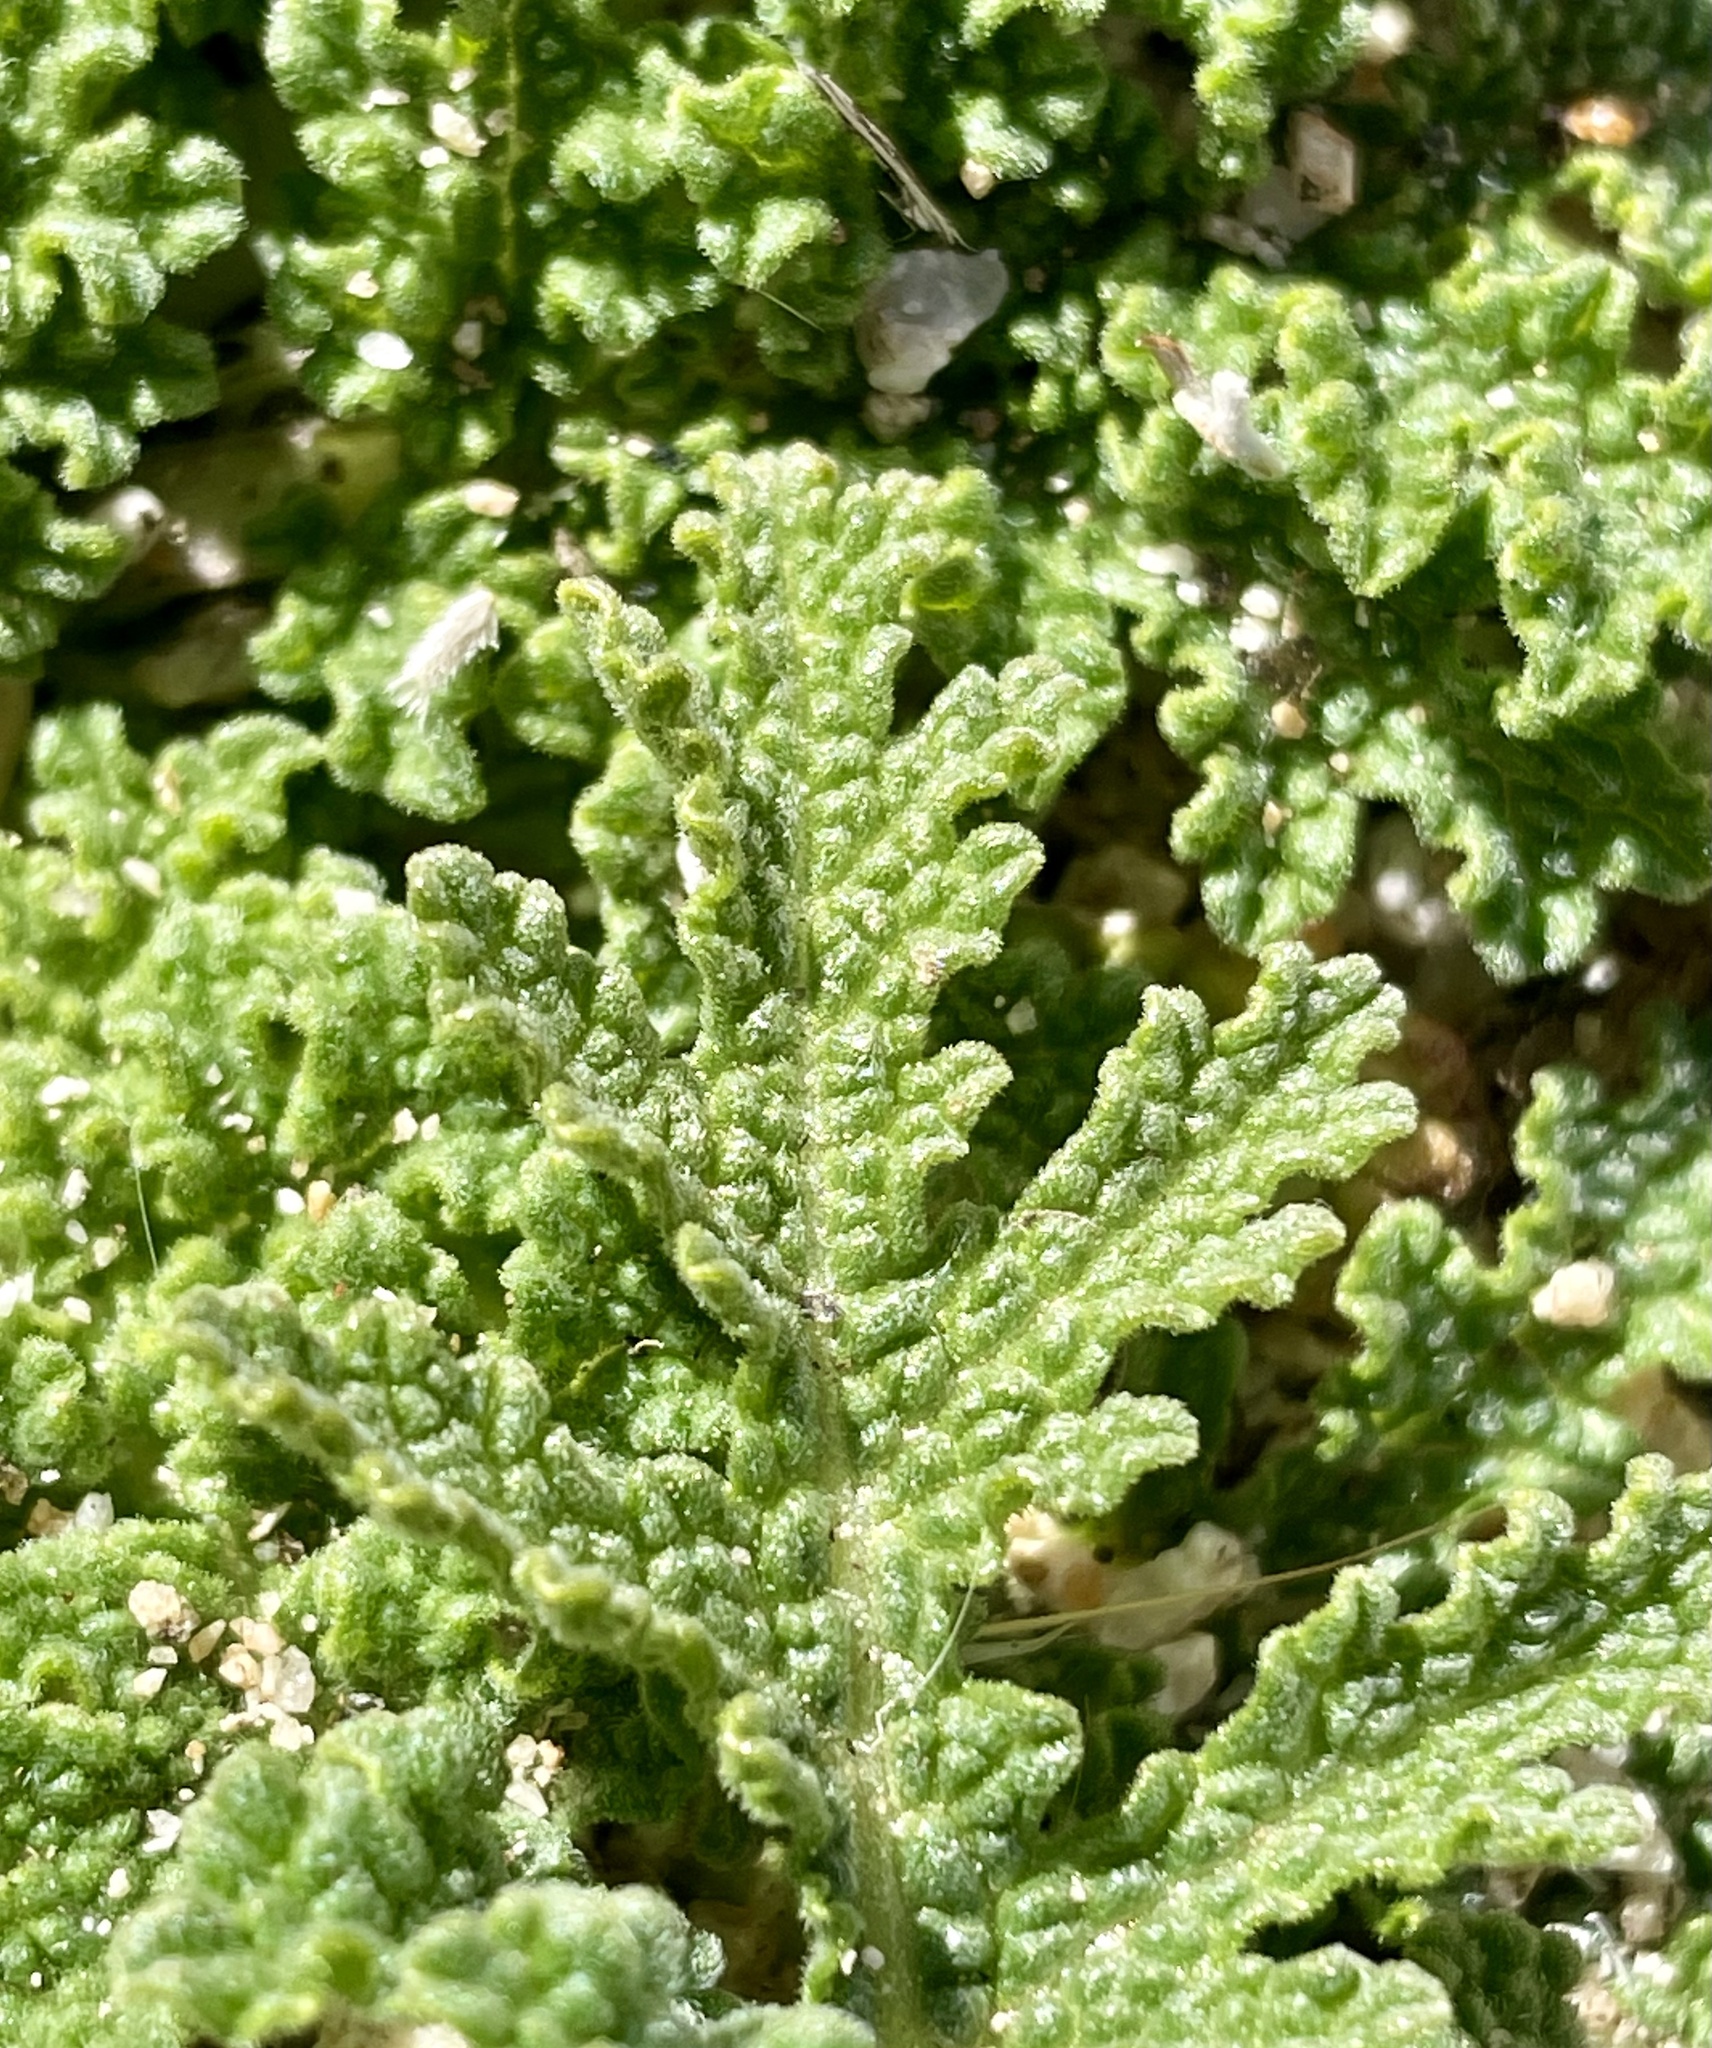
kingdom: Plantae
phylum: Tracheophyta
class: Magnoliopsida
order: Lamiales
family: Lamiaceae
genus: Salvia
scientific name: Salvia columbariae
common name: Chia
